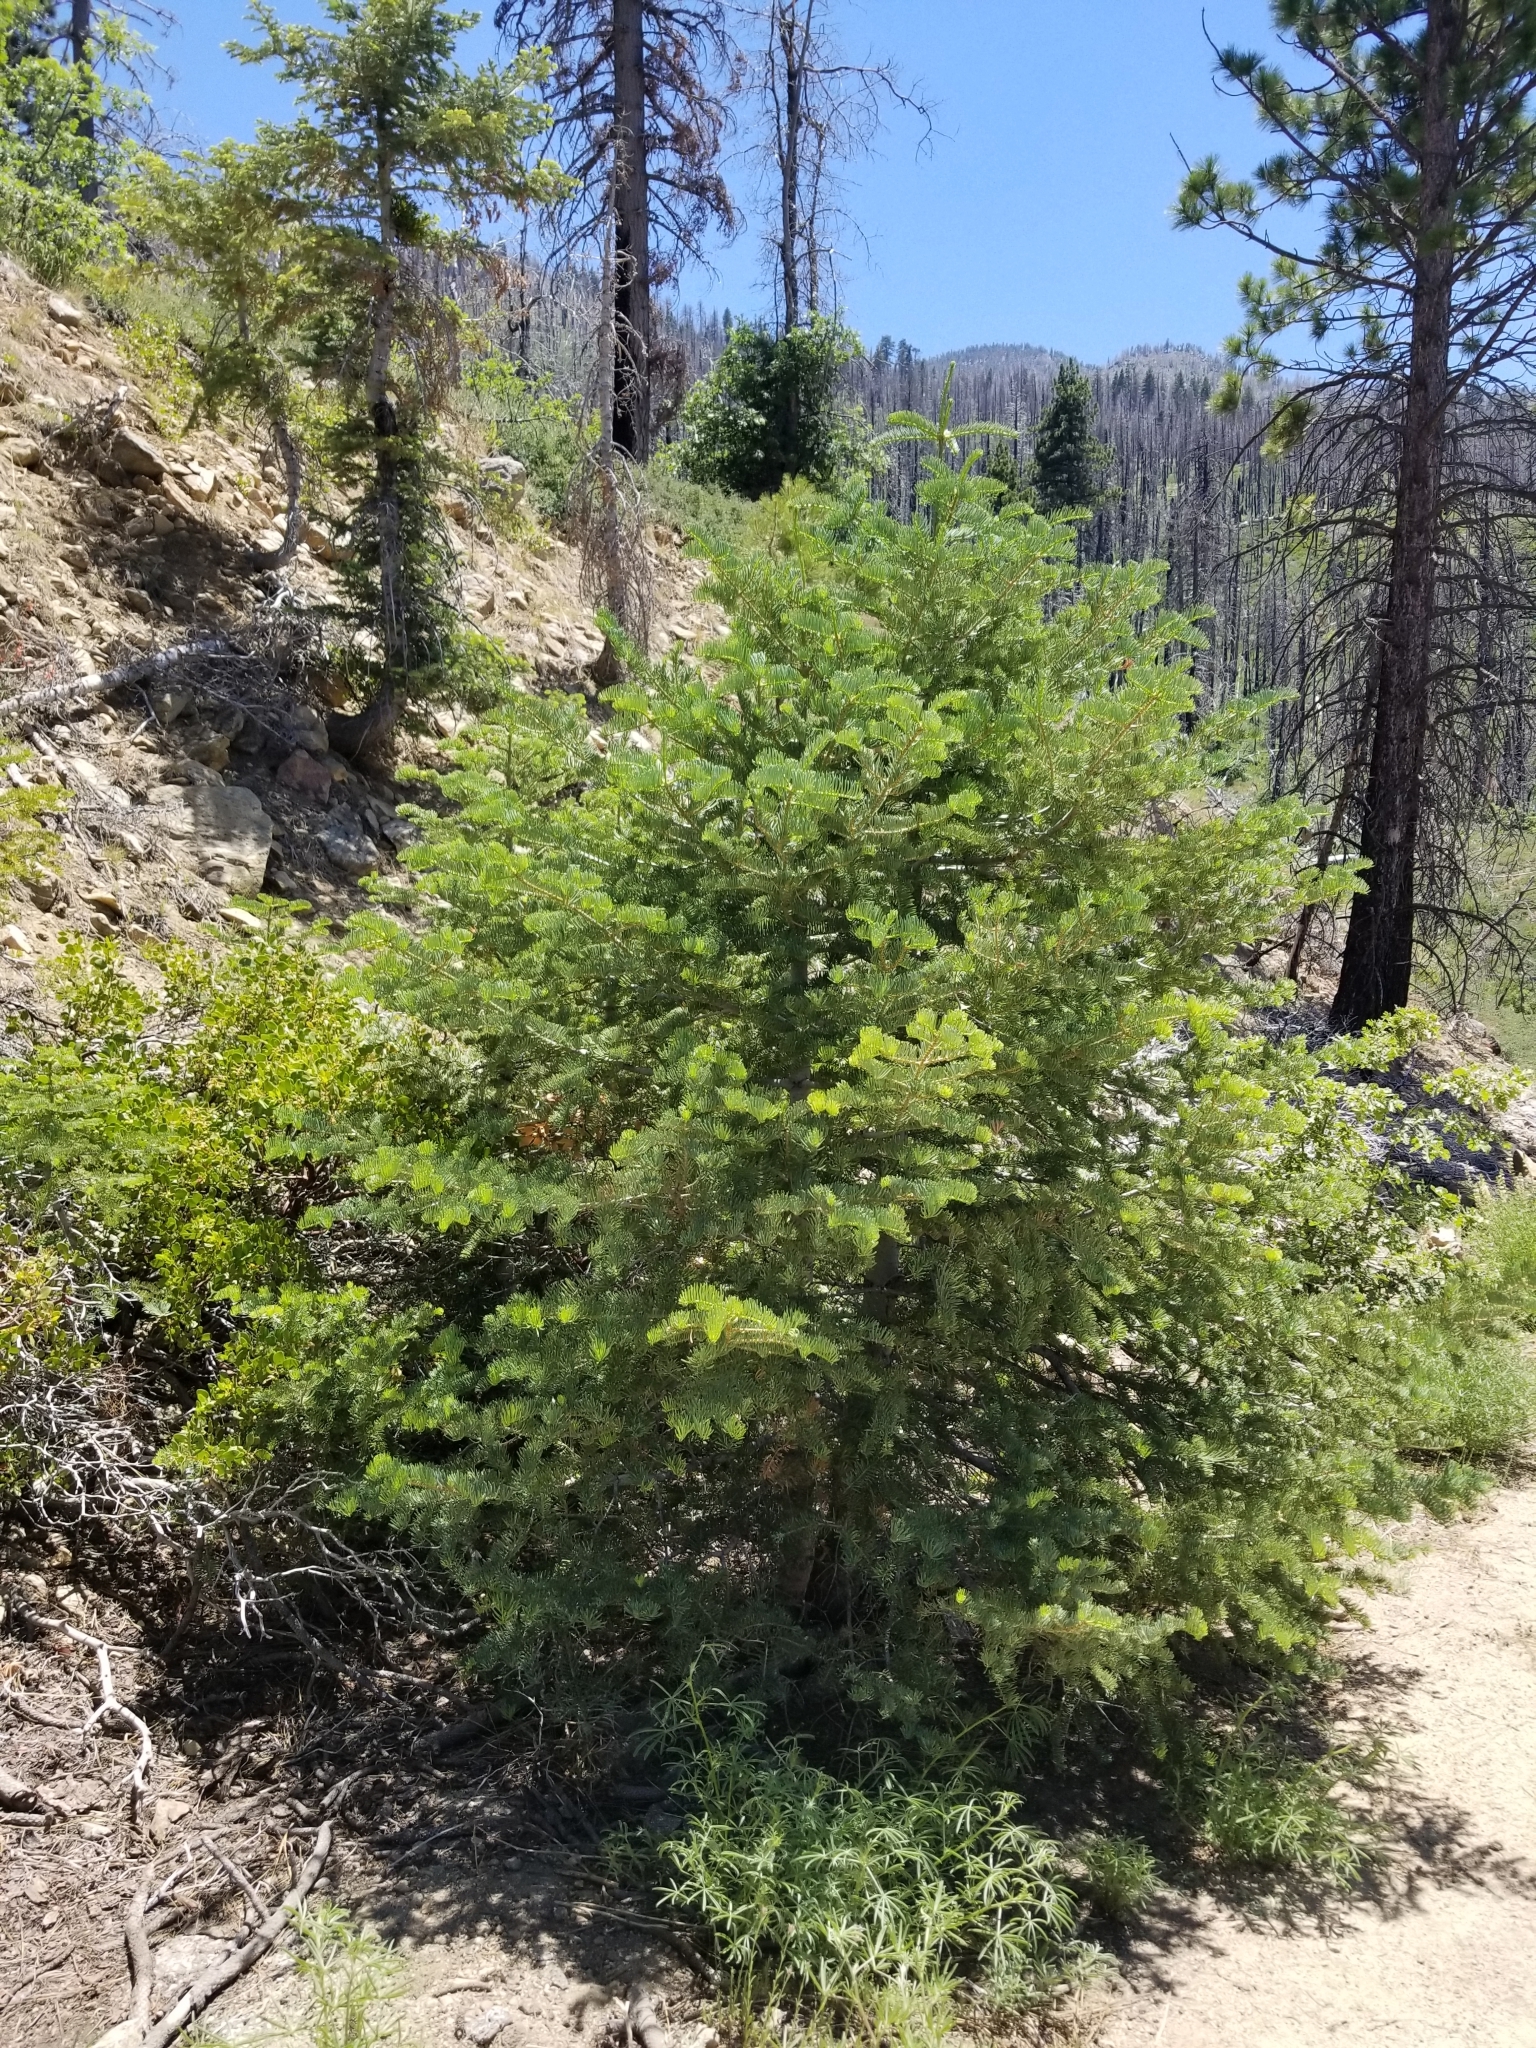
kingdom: Plantae
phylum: Tracheophyta
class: Pinopsida
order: Pinales
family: Pinaceae
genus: Abies
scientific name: Abies concolor
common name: Colorado fir
